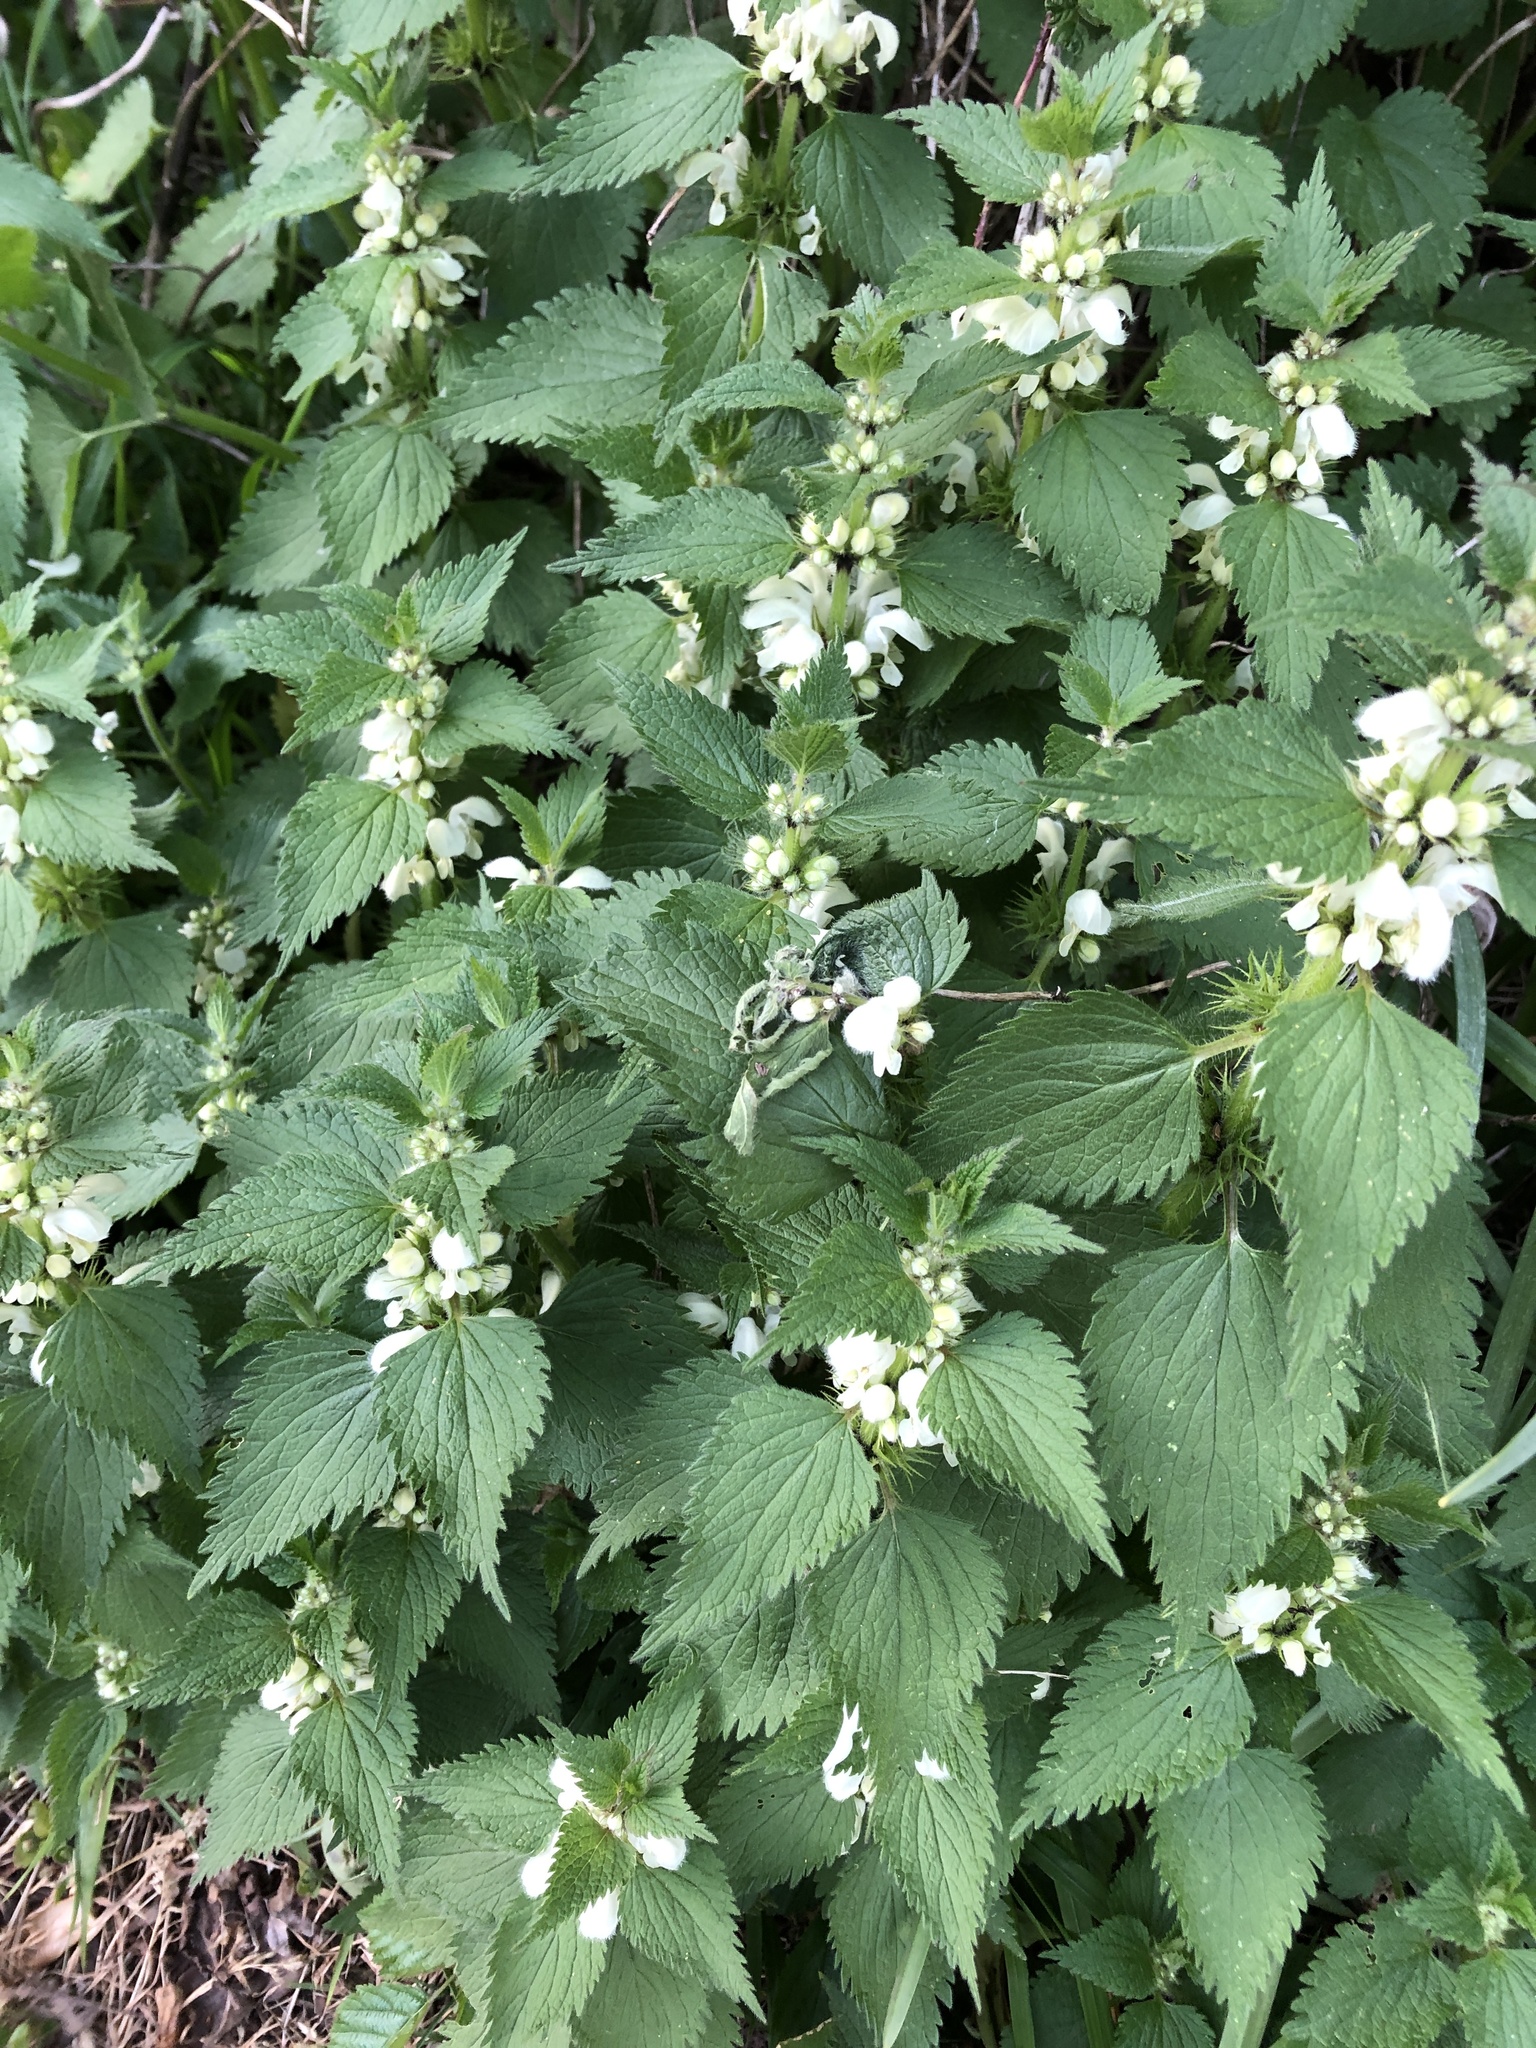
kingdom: Plantae
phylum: Tracheophyta
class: Magnoliopsida
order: Lamiales
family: Lamiaceae
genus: Lamium
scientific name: Lamium album
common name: White dead-nettle
